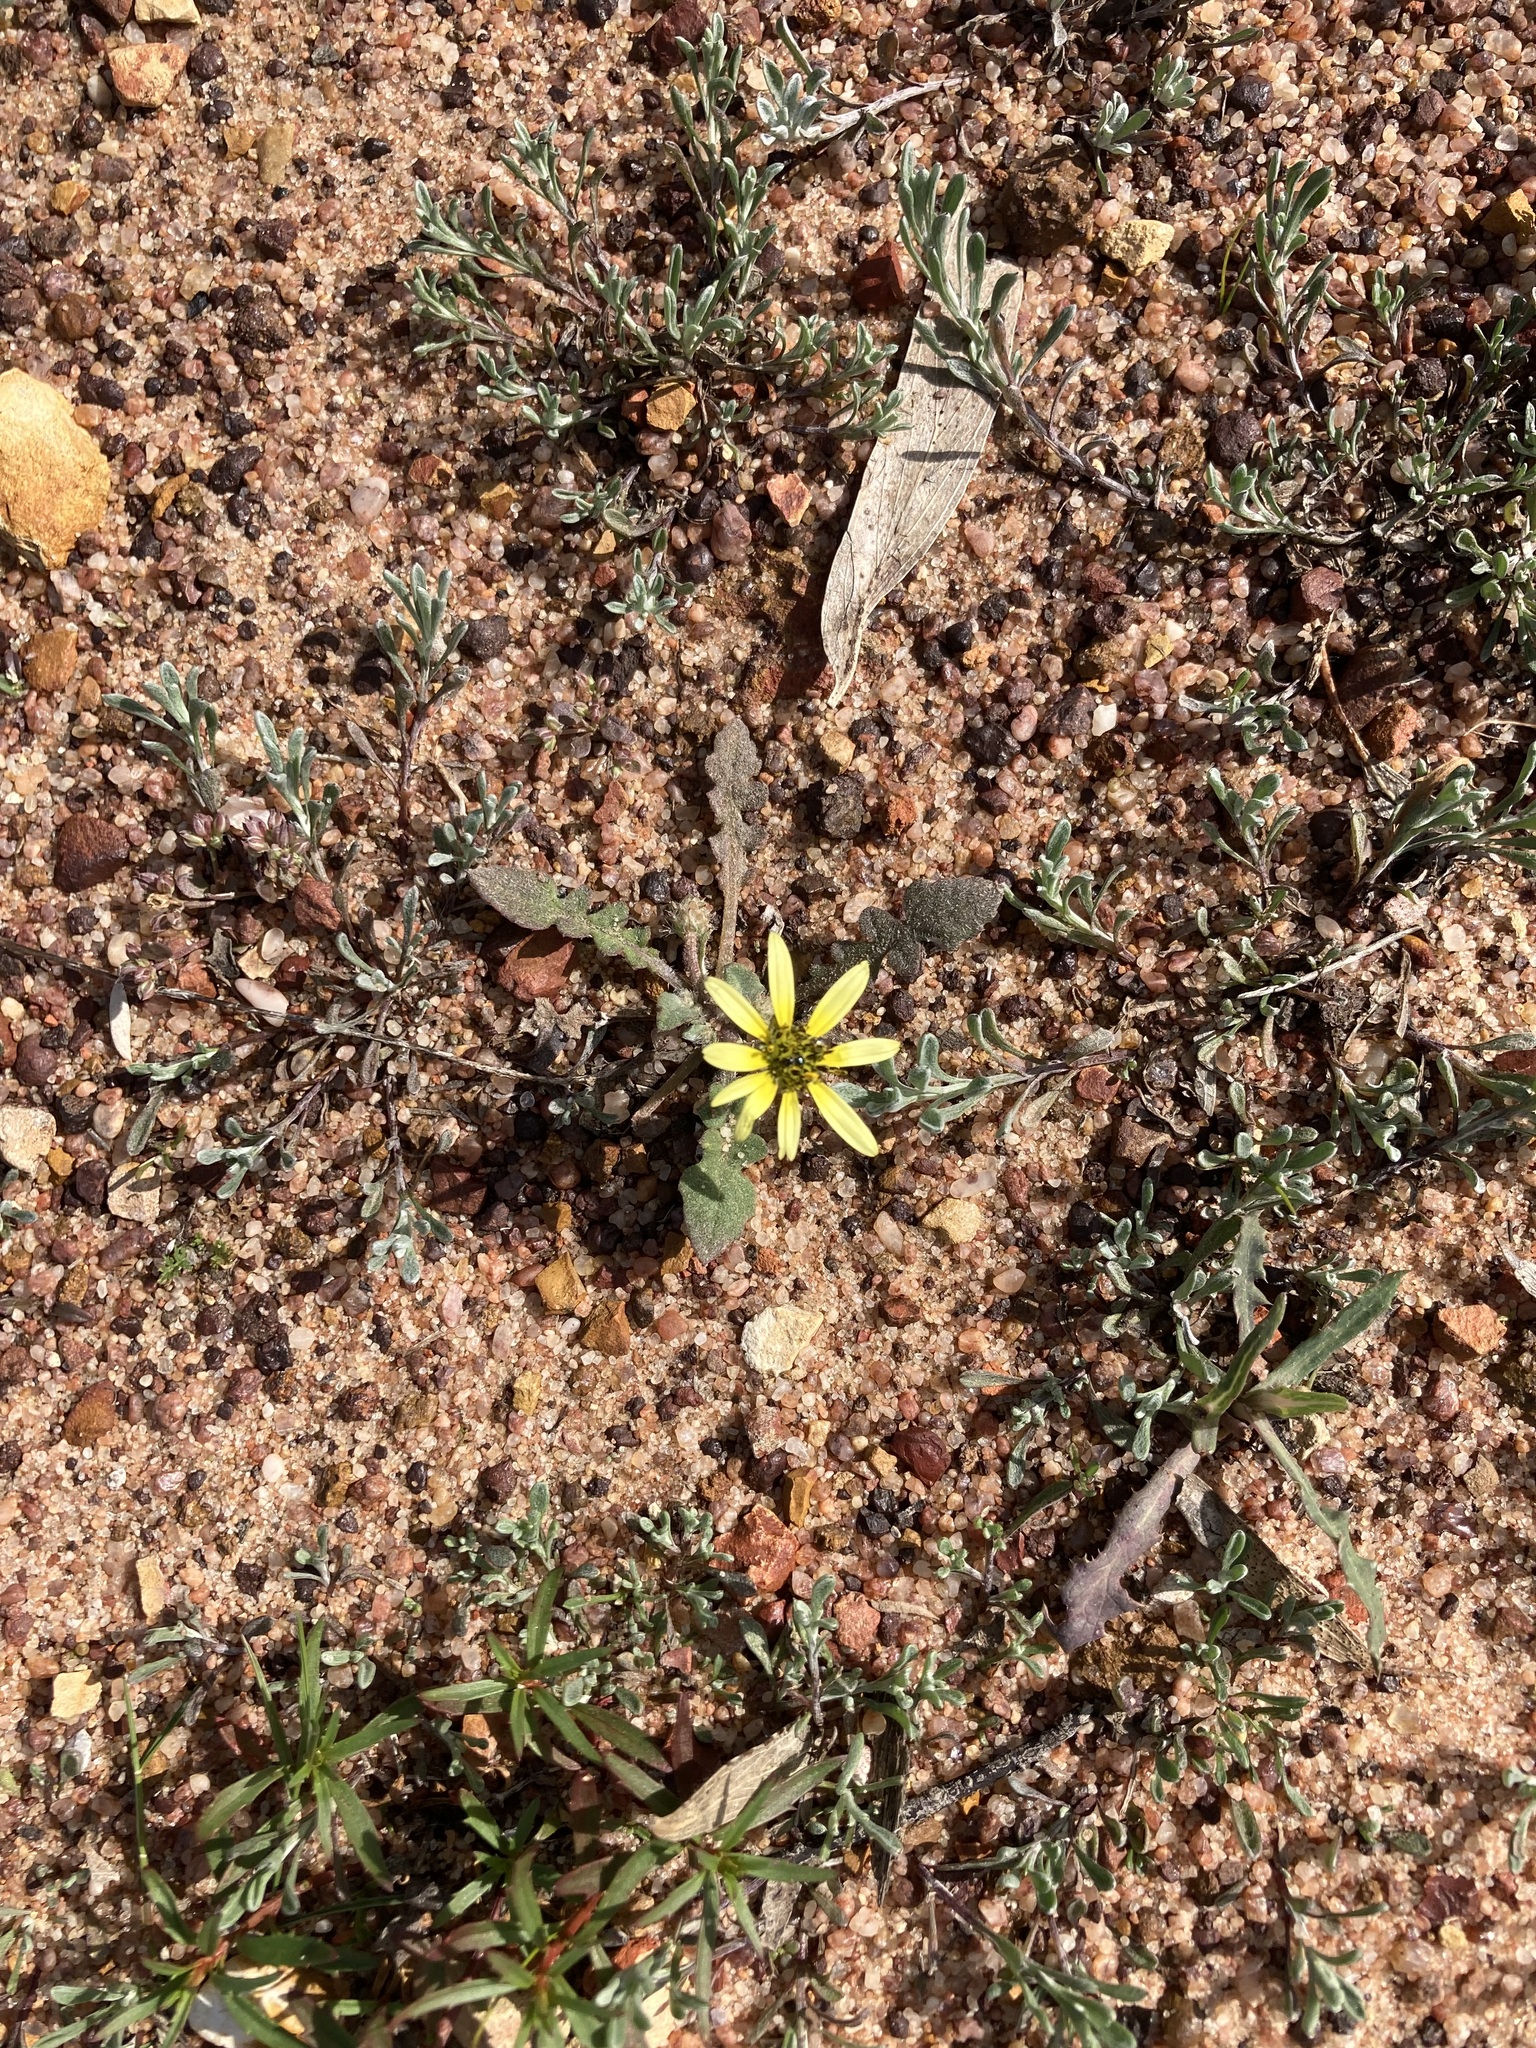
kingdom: Plantae
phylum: Tracheophyta
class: Magnoliopsida
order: Asterales
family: Asteraceae
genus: Arctotheca
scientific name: Arctotheca calendula
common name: Capeweed
